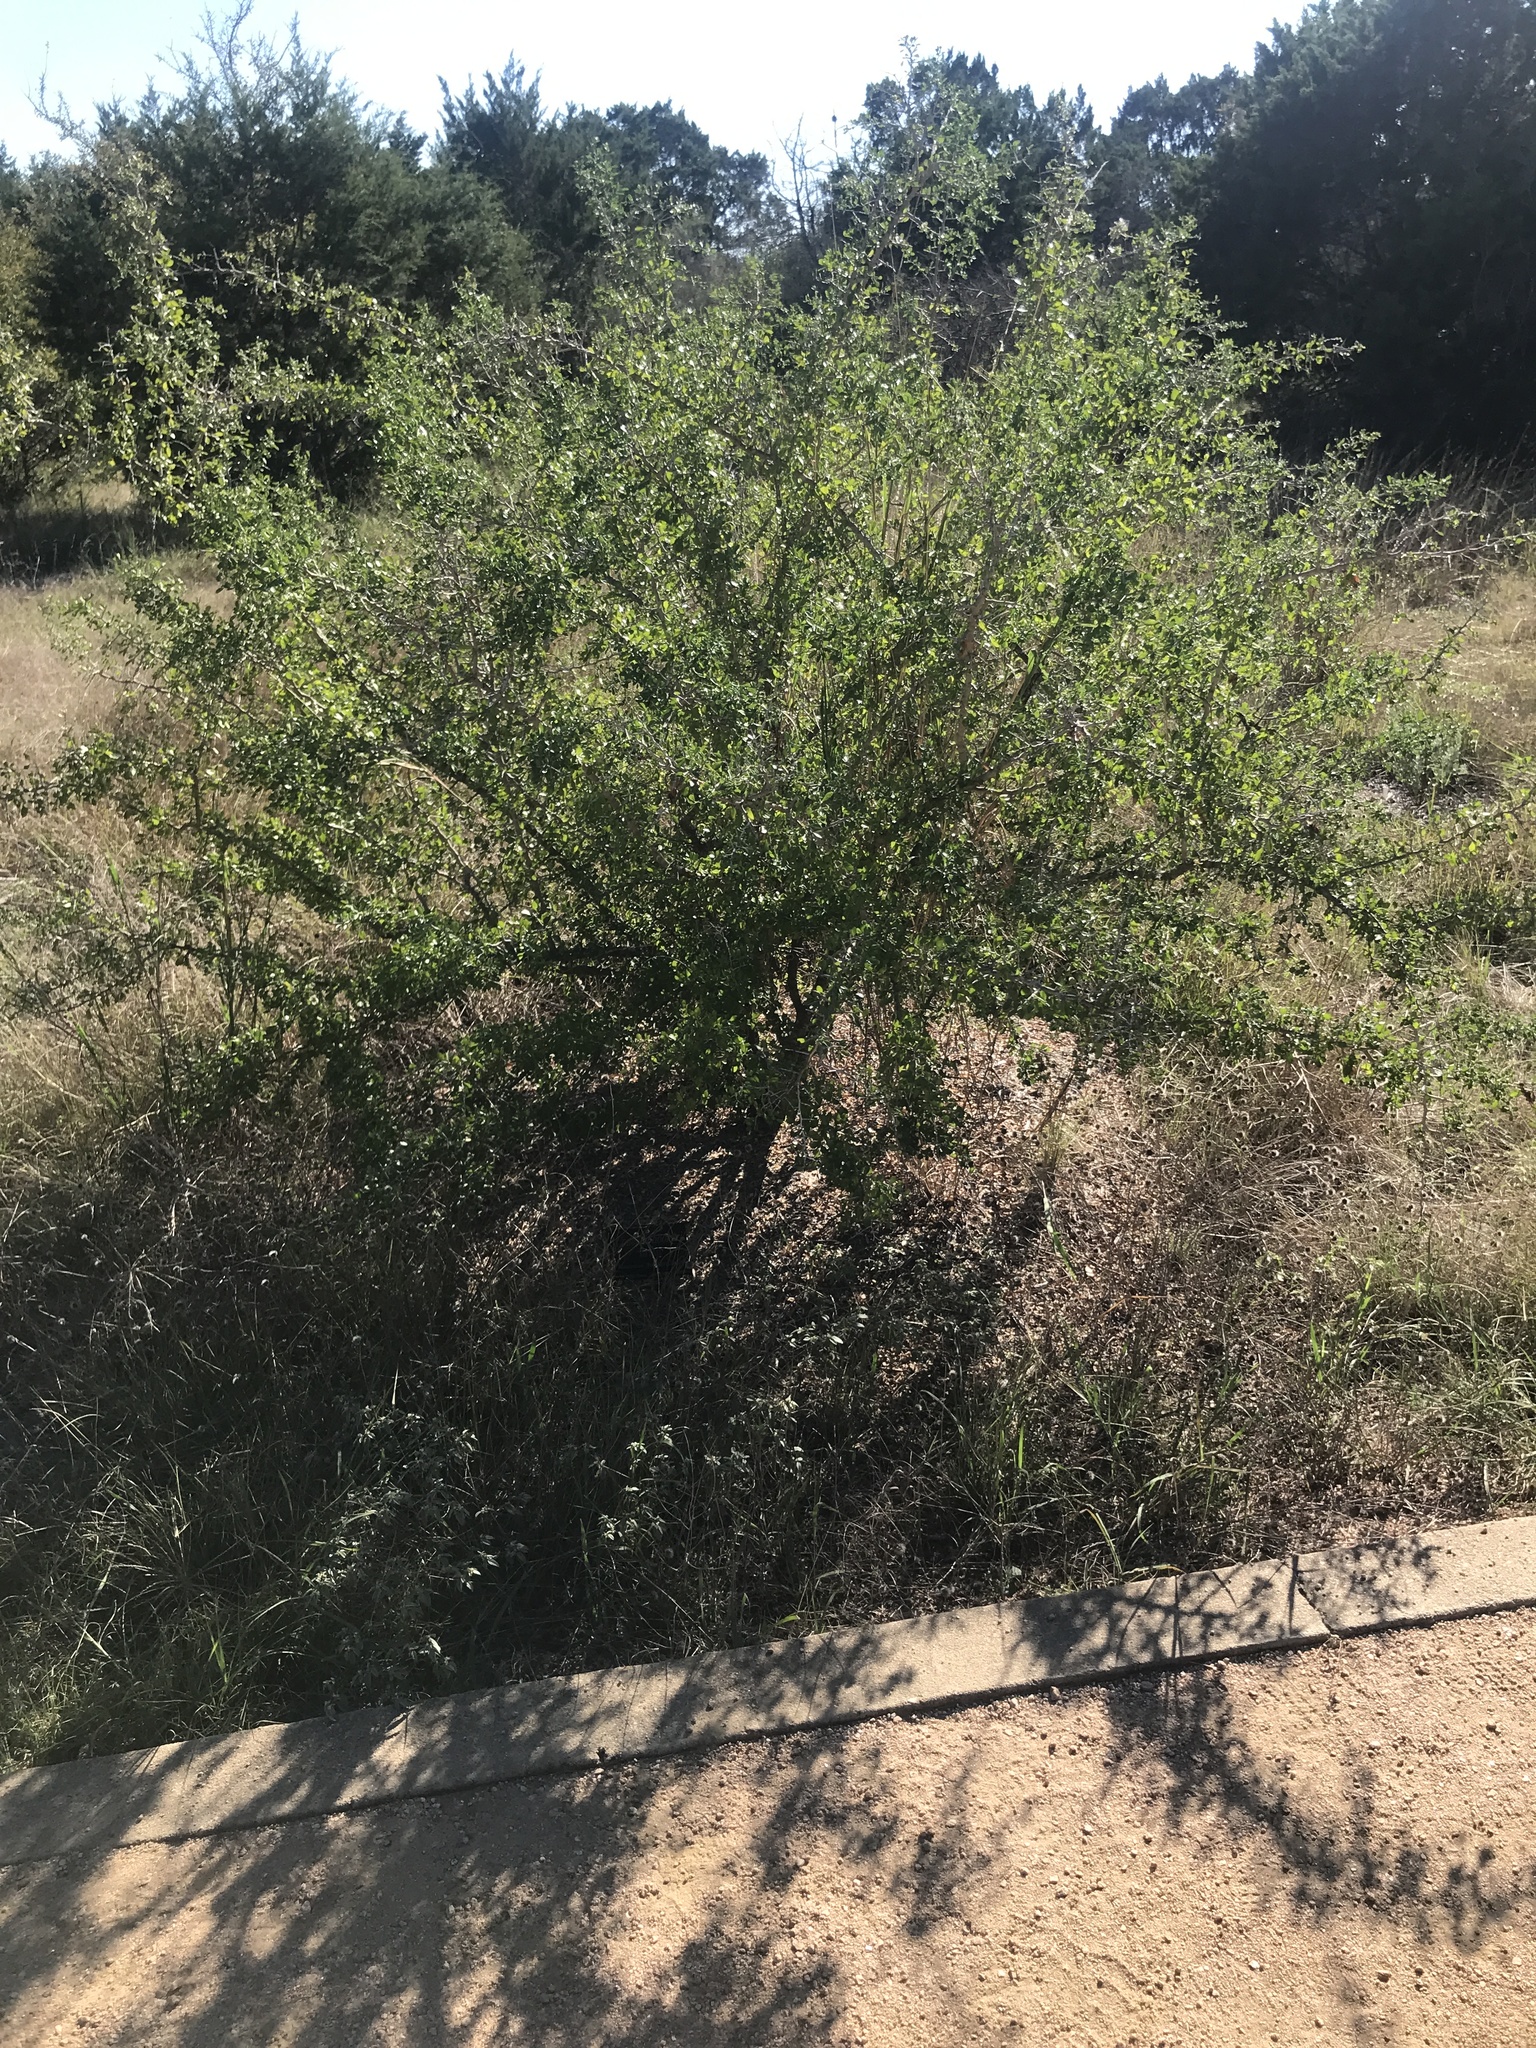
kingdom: Plantae
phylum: Tracheophyta
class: Magnoliopsida
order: Rosales
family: Rhamnaceae
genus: Condalia
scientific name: Condalia hookeri
